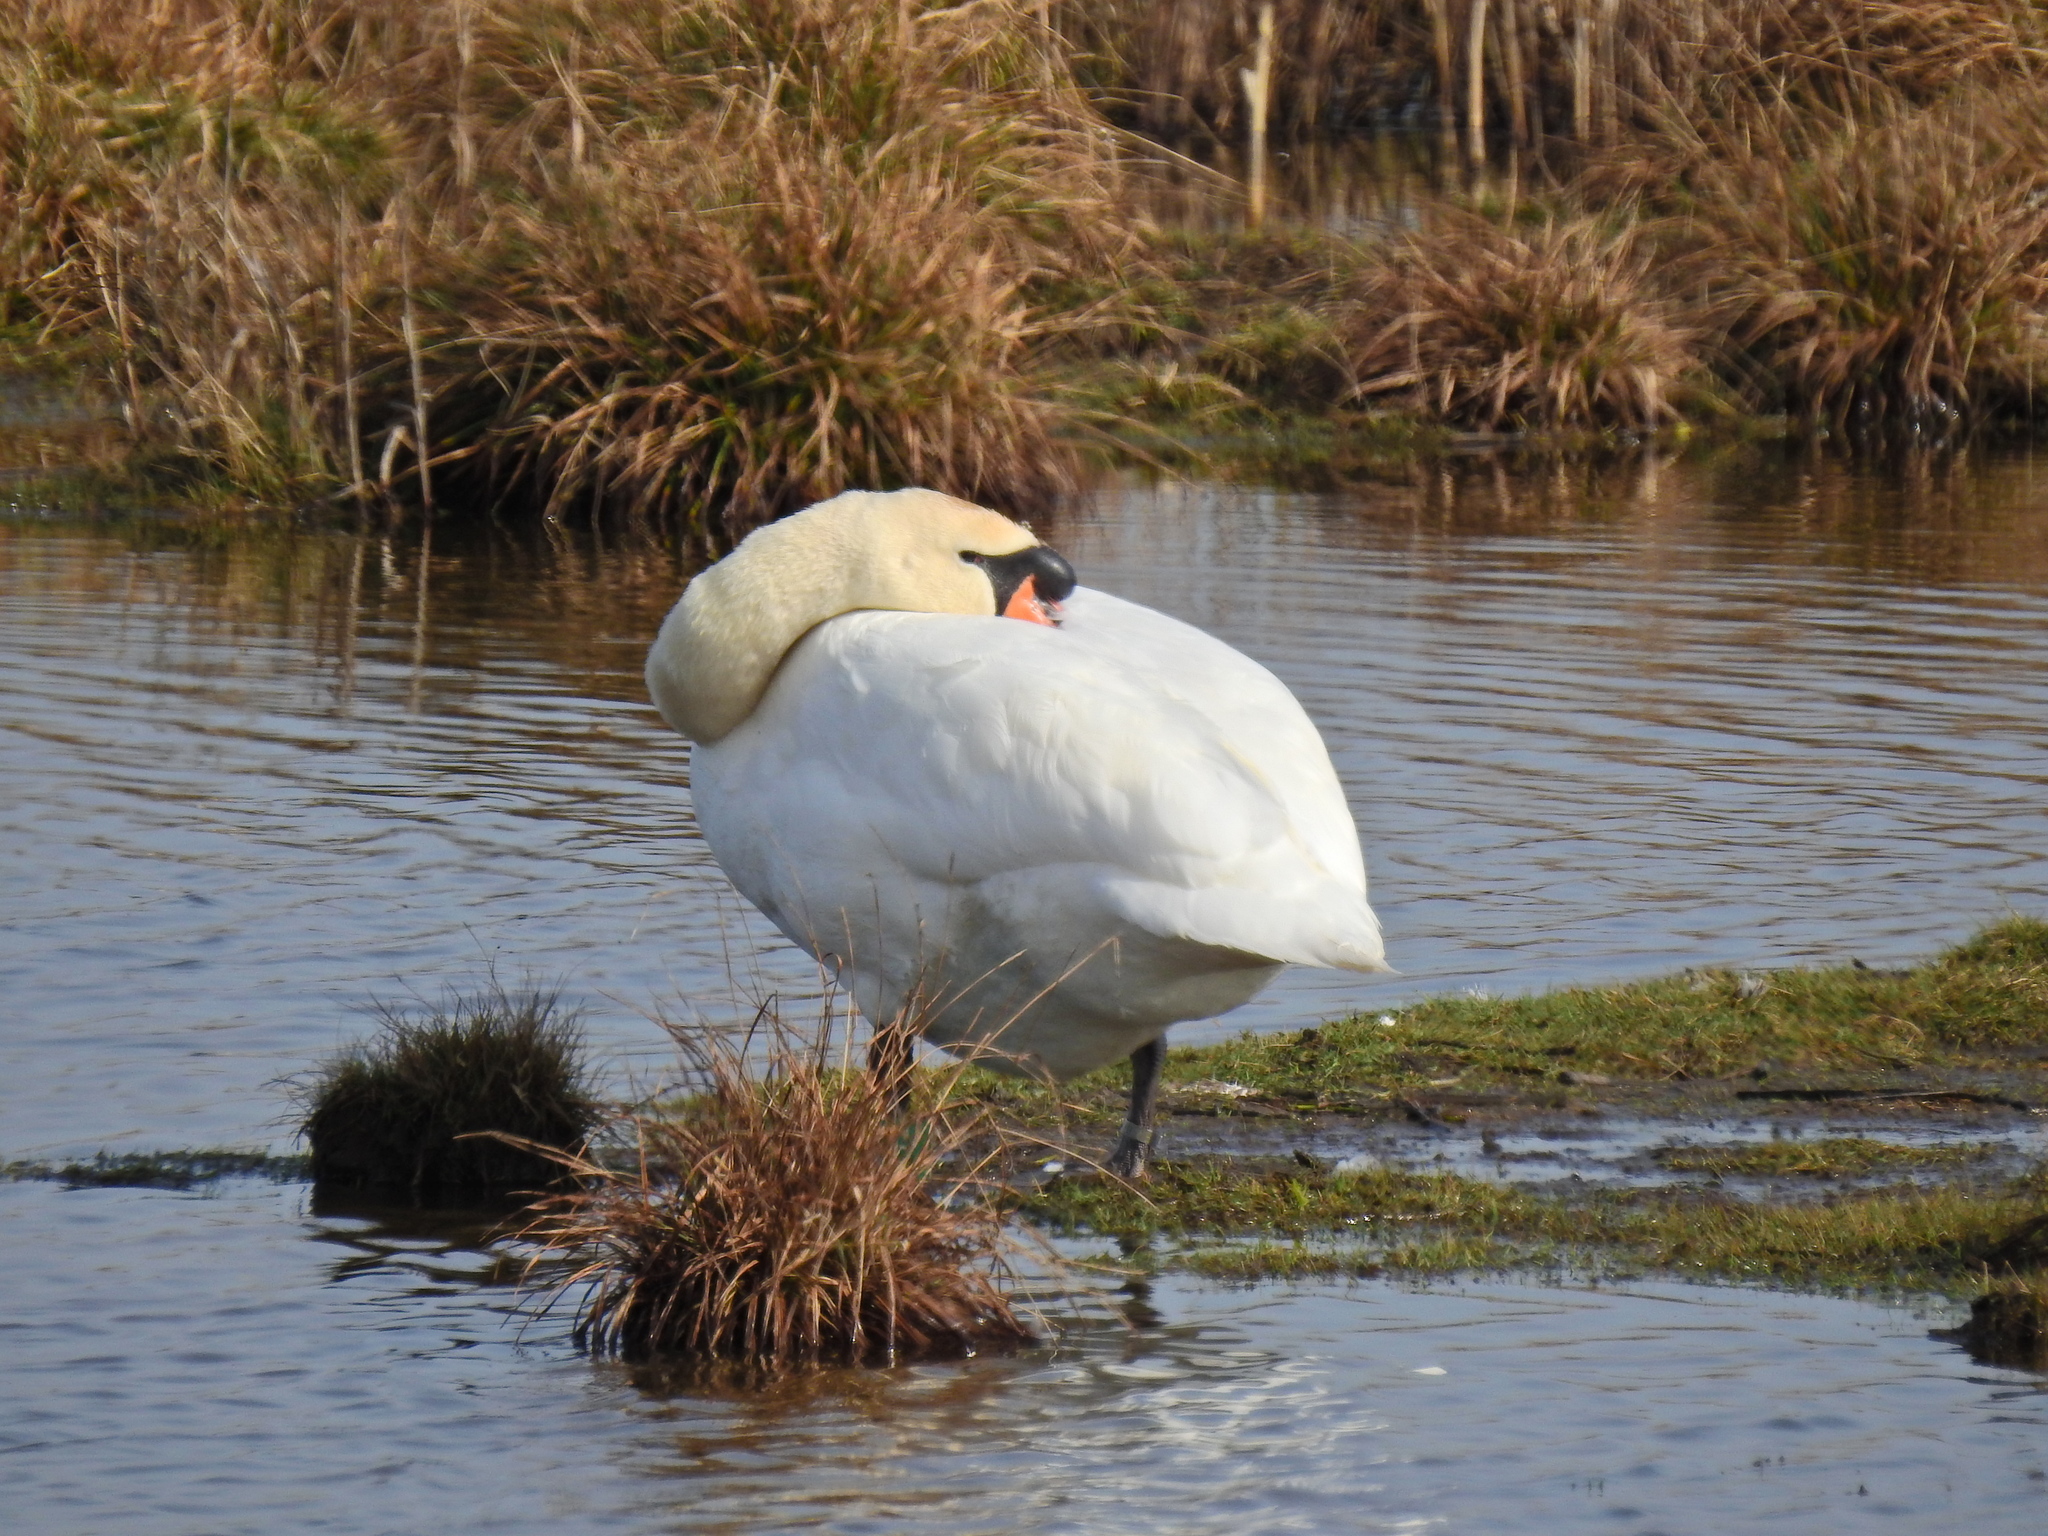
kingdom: Animalia
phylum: Chordata
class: Aves
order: Anseriformes
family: Anatidae
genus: Cygnus
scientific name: Cygnus olor
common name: Mute swan
